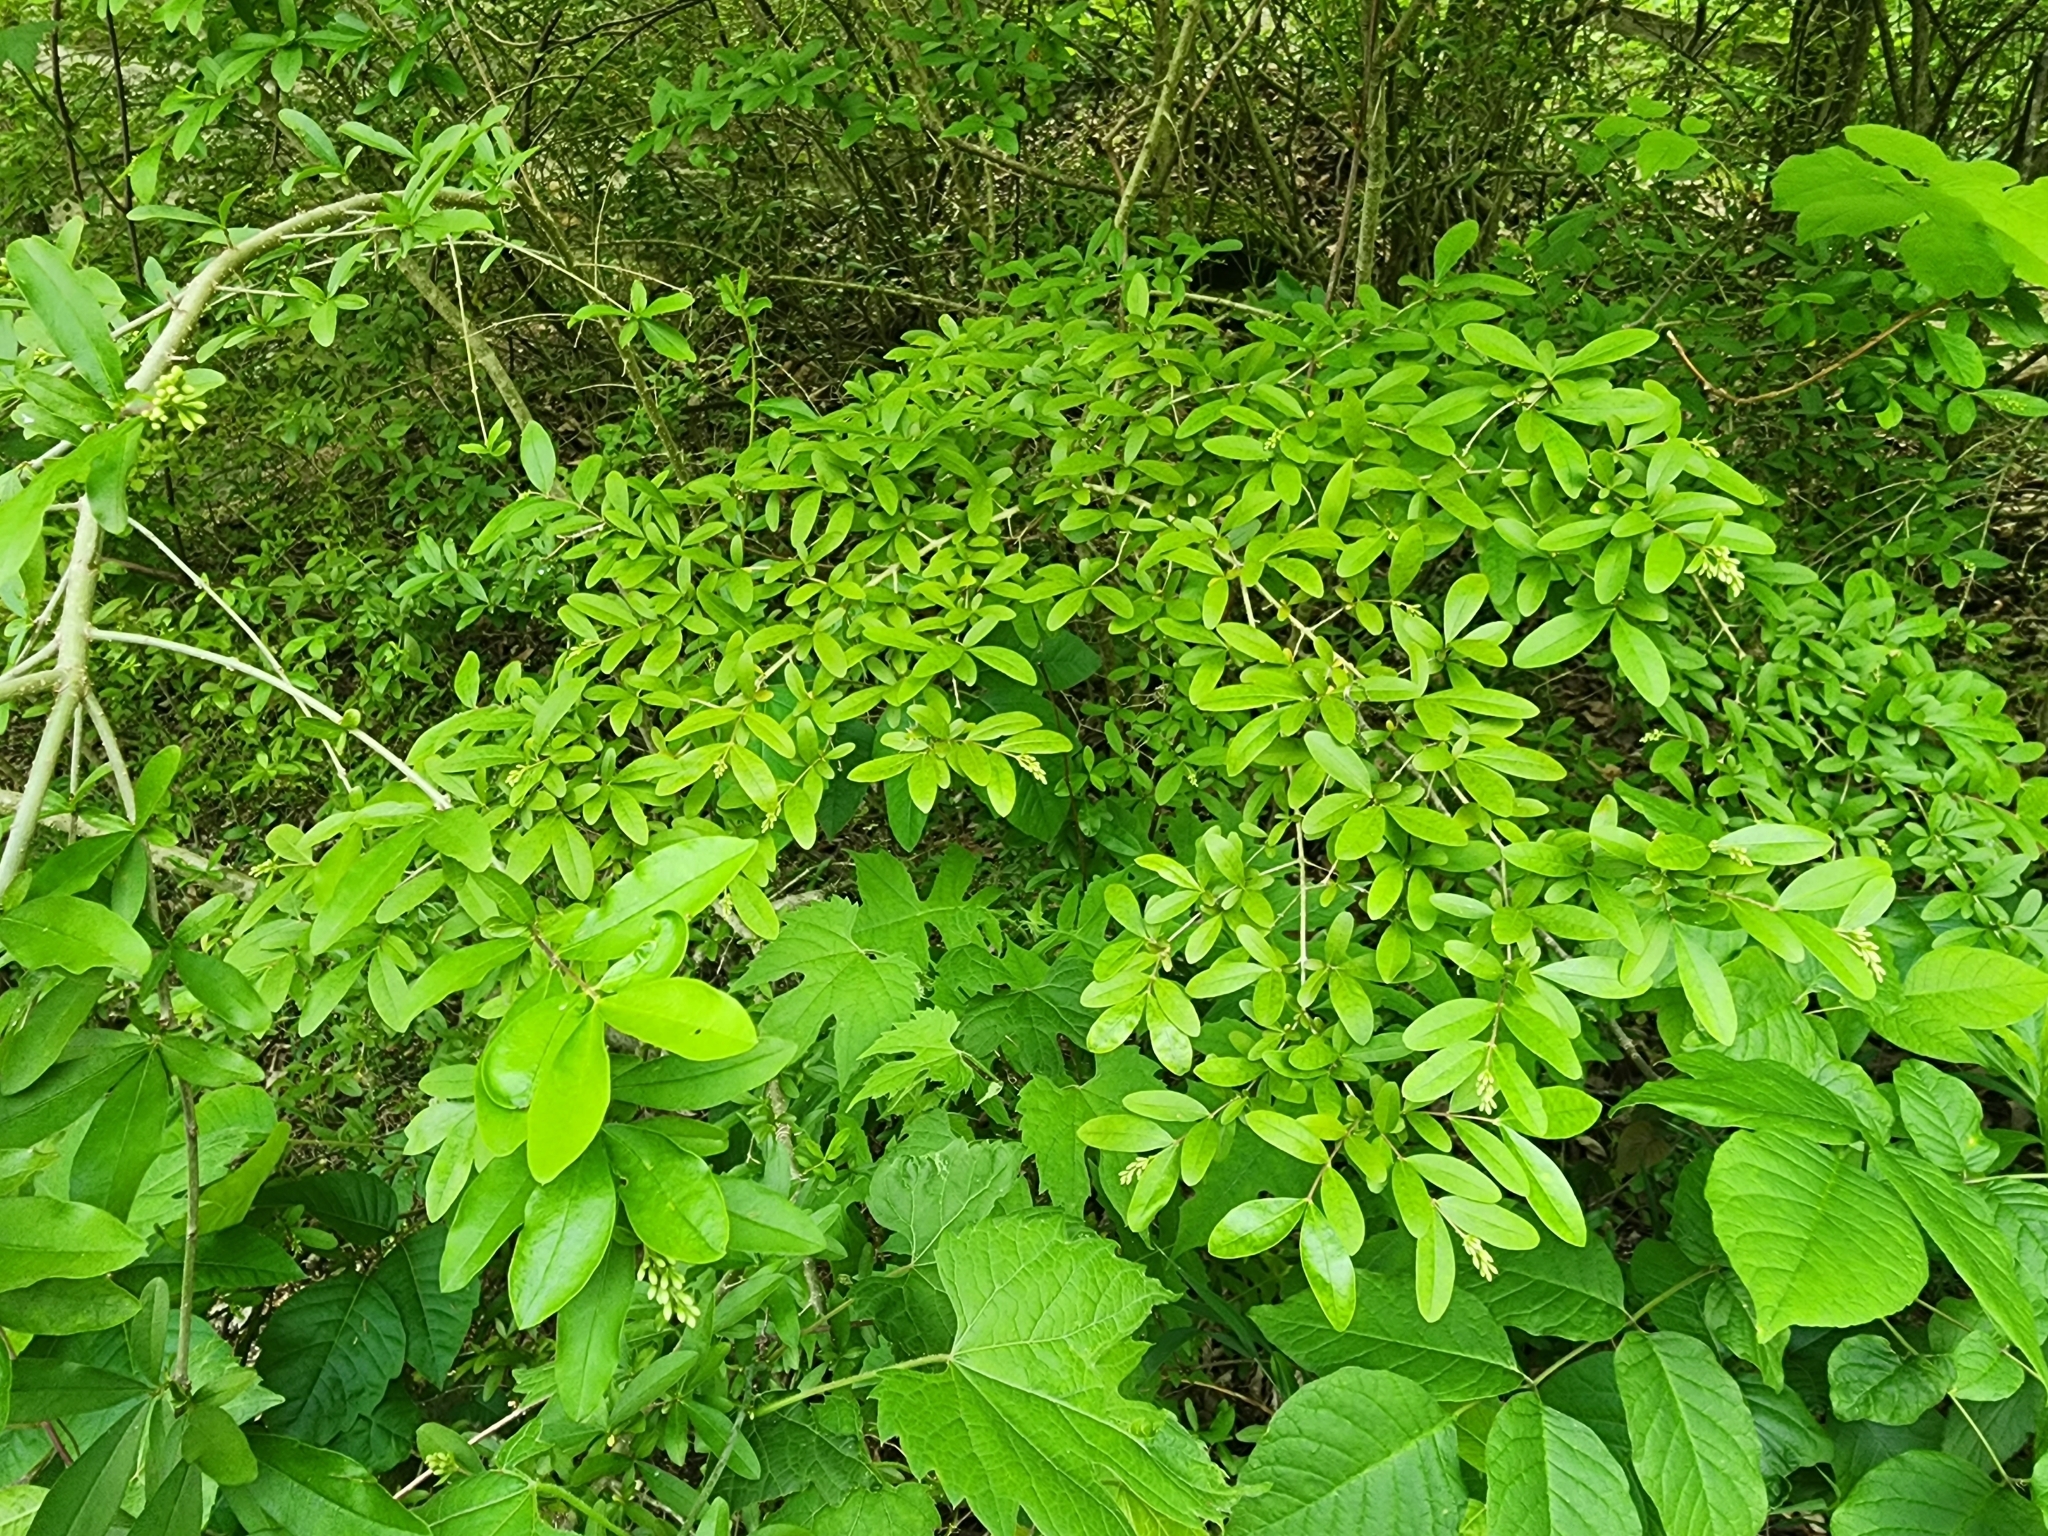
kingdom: Plantae
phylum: Tracheophyta
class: Magnoliopsida
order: Lamiales
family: Oleaceae
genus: Ligustrum
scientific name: Ligustrum obtusifolium
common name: Border privet
